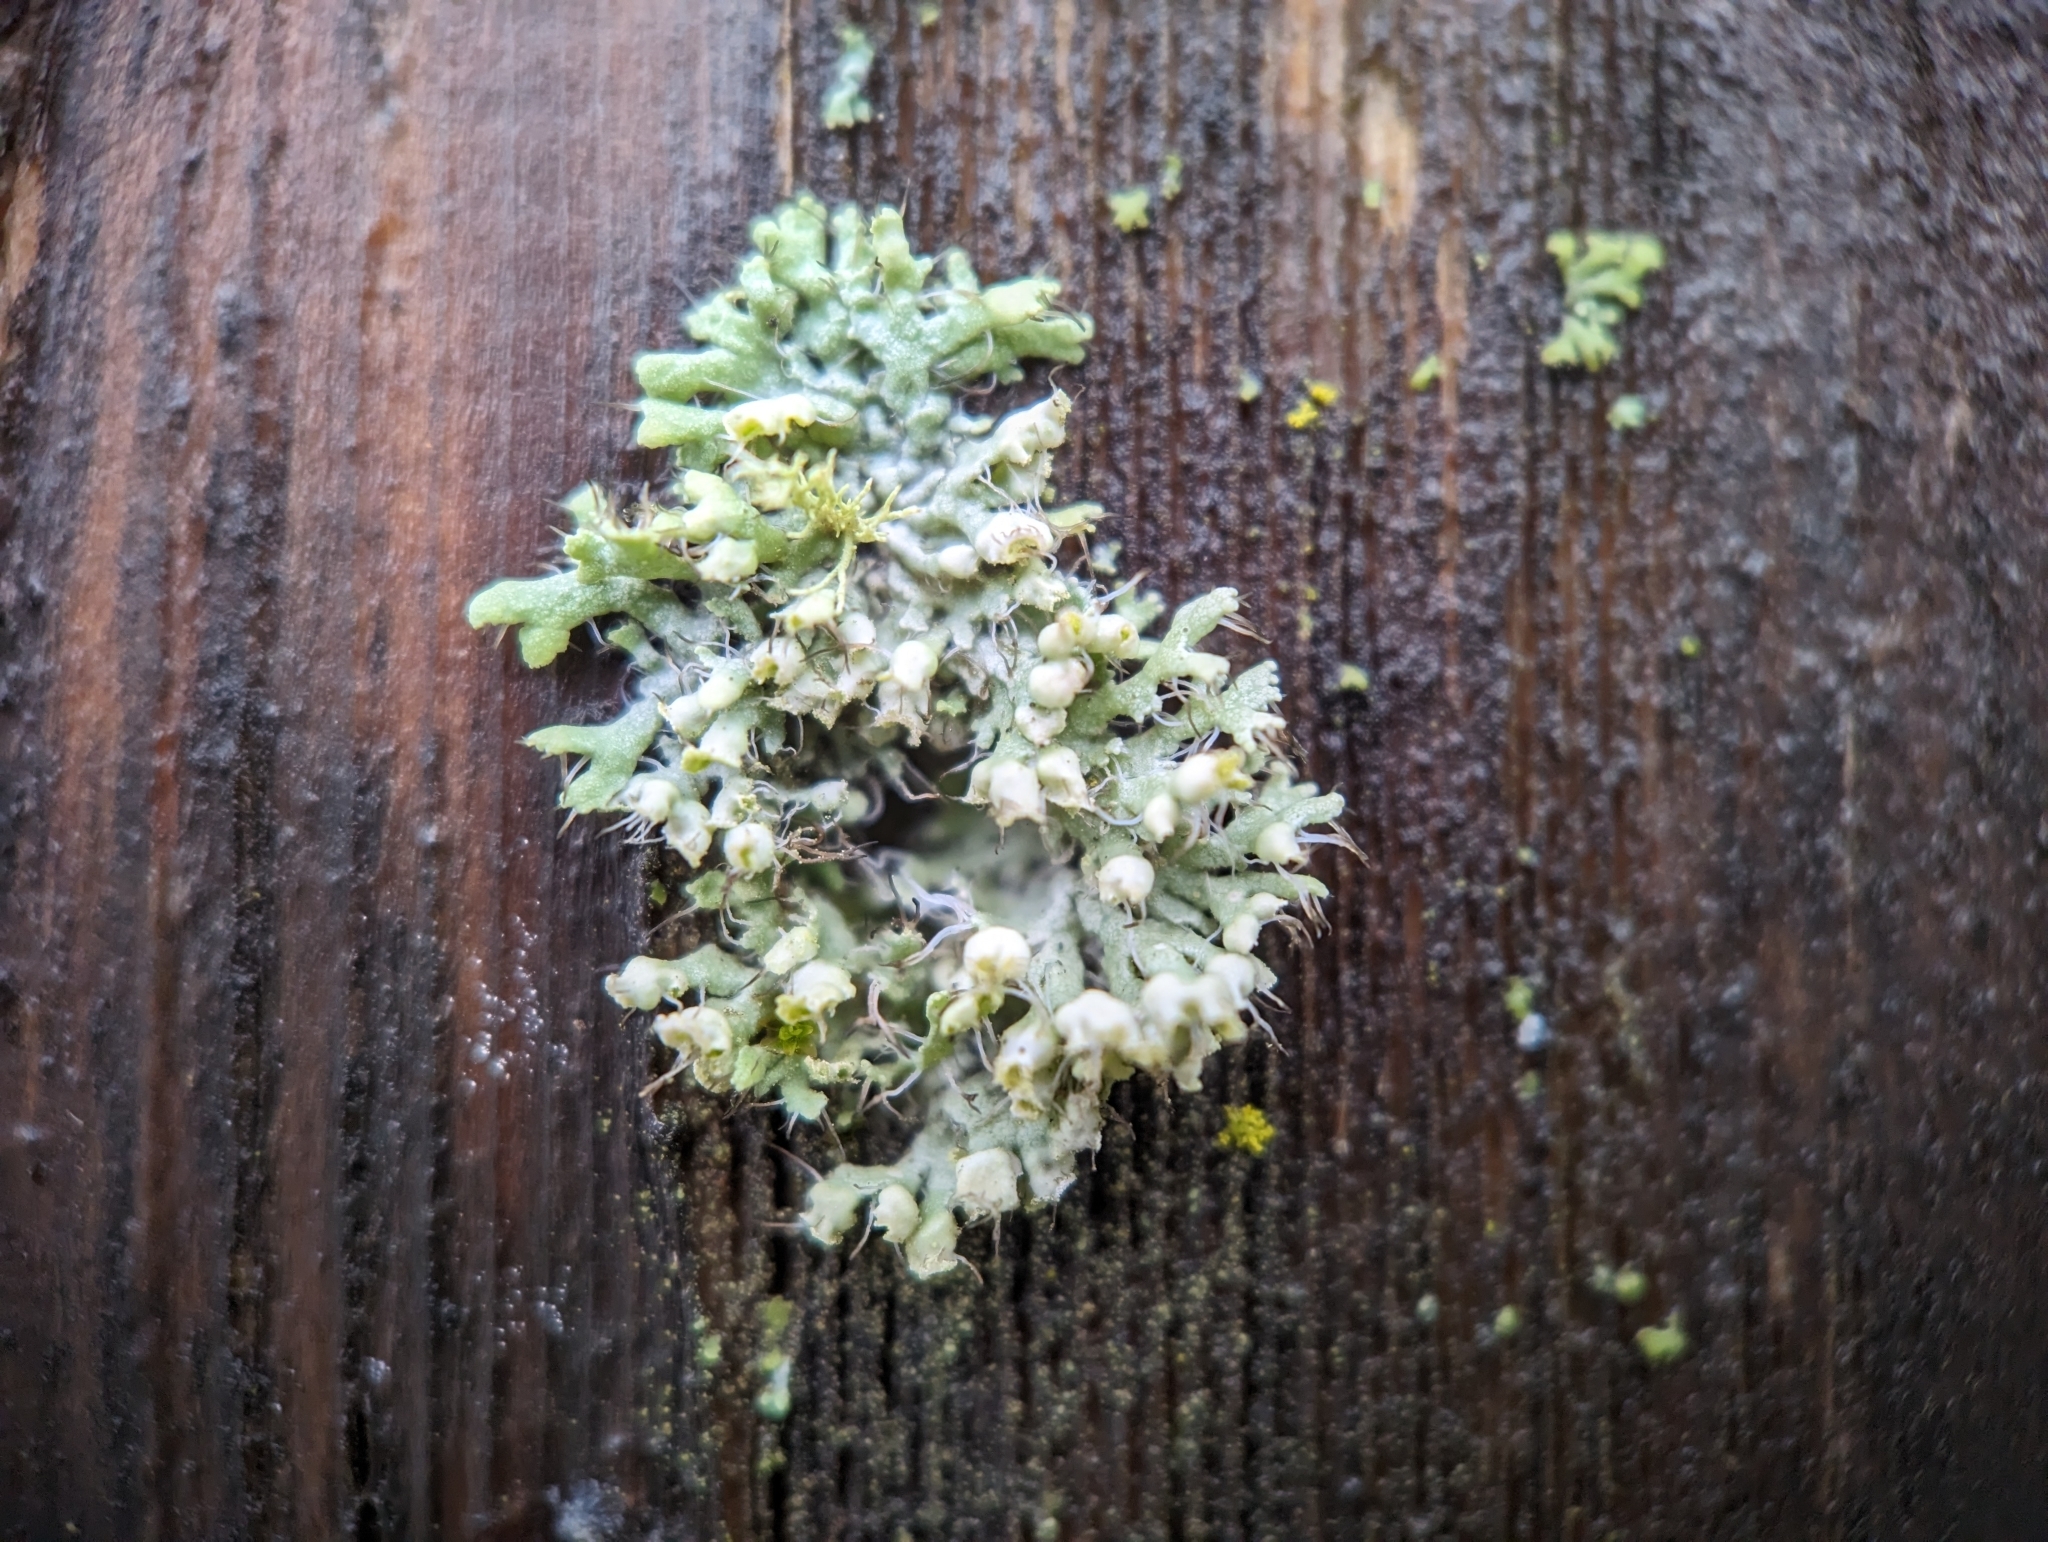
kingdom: Fungi
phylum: Ascomycota
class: Lecanoromycetes
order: Caliciales
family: Physciaceae
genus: Physcia
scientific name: Physcia adscendens
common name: Hooded rosette lichen
